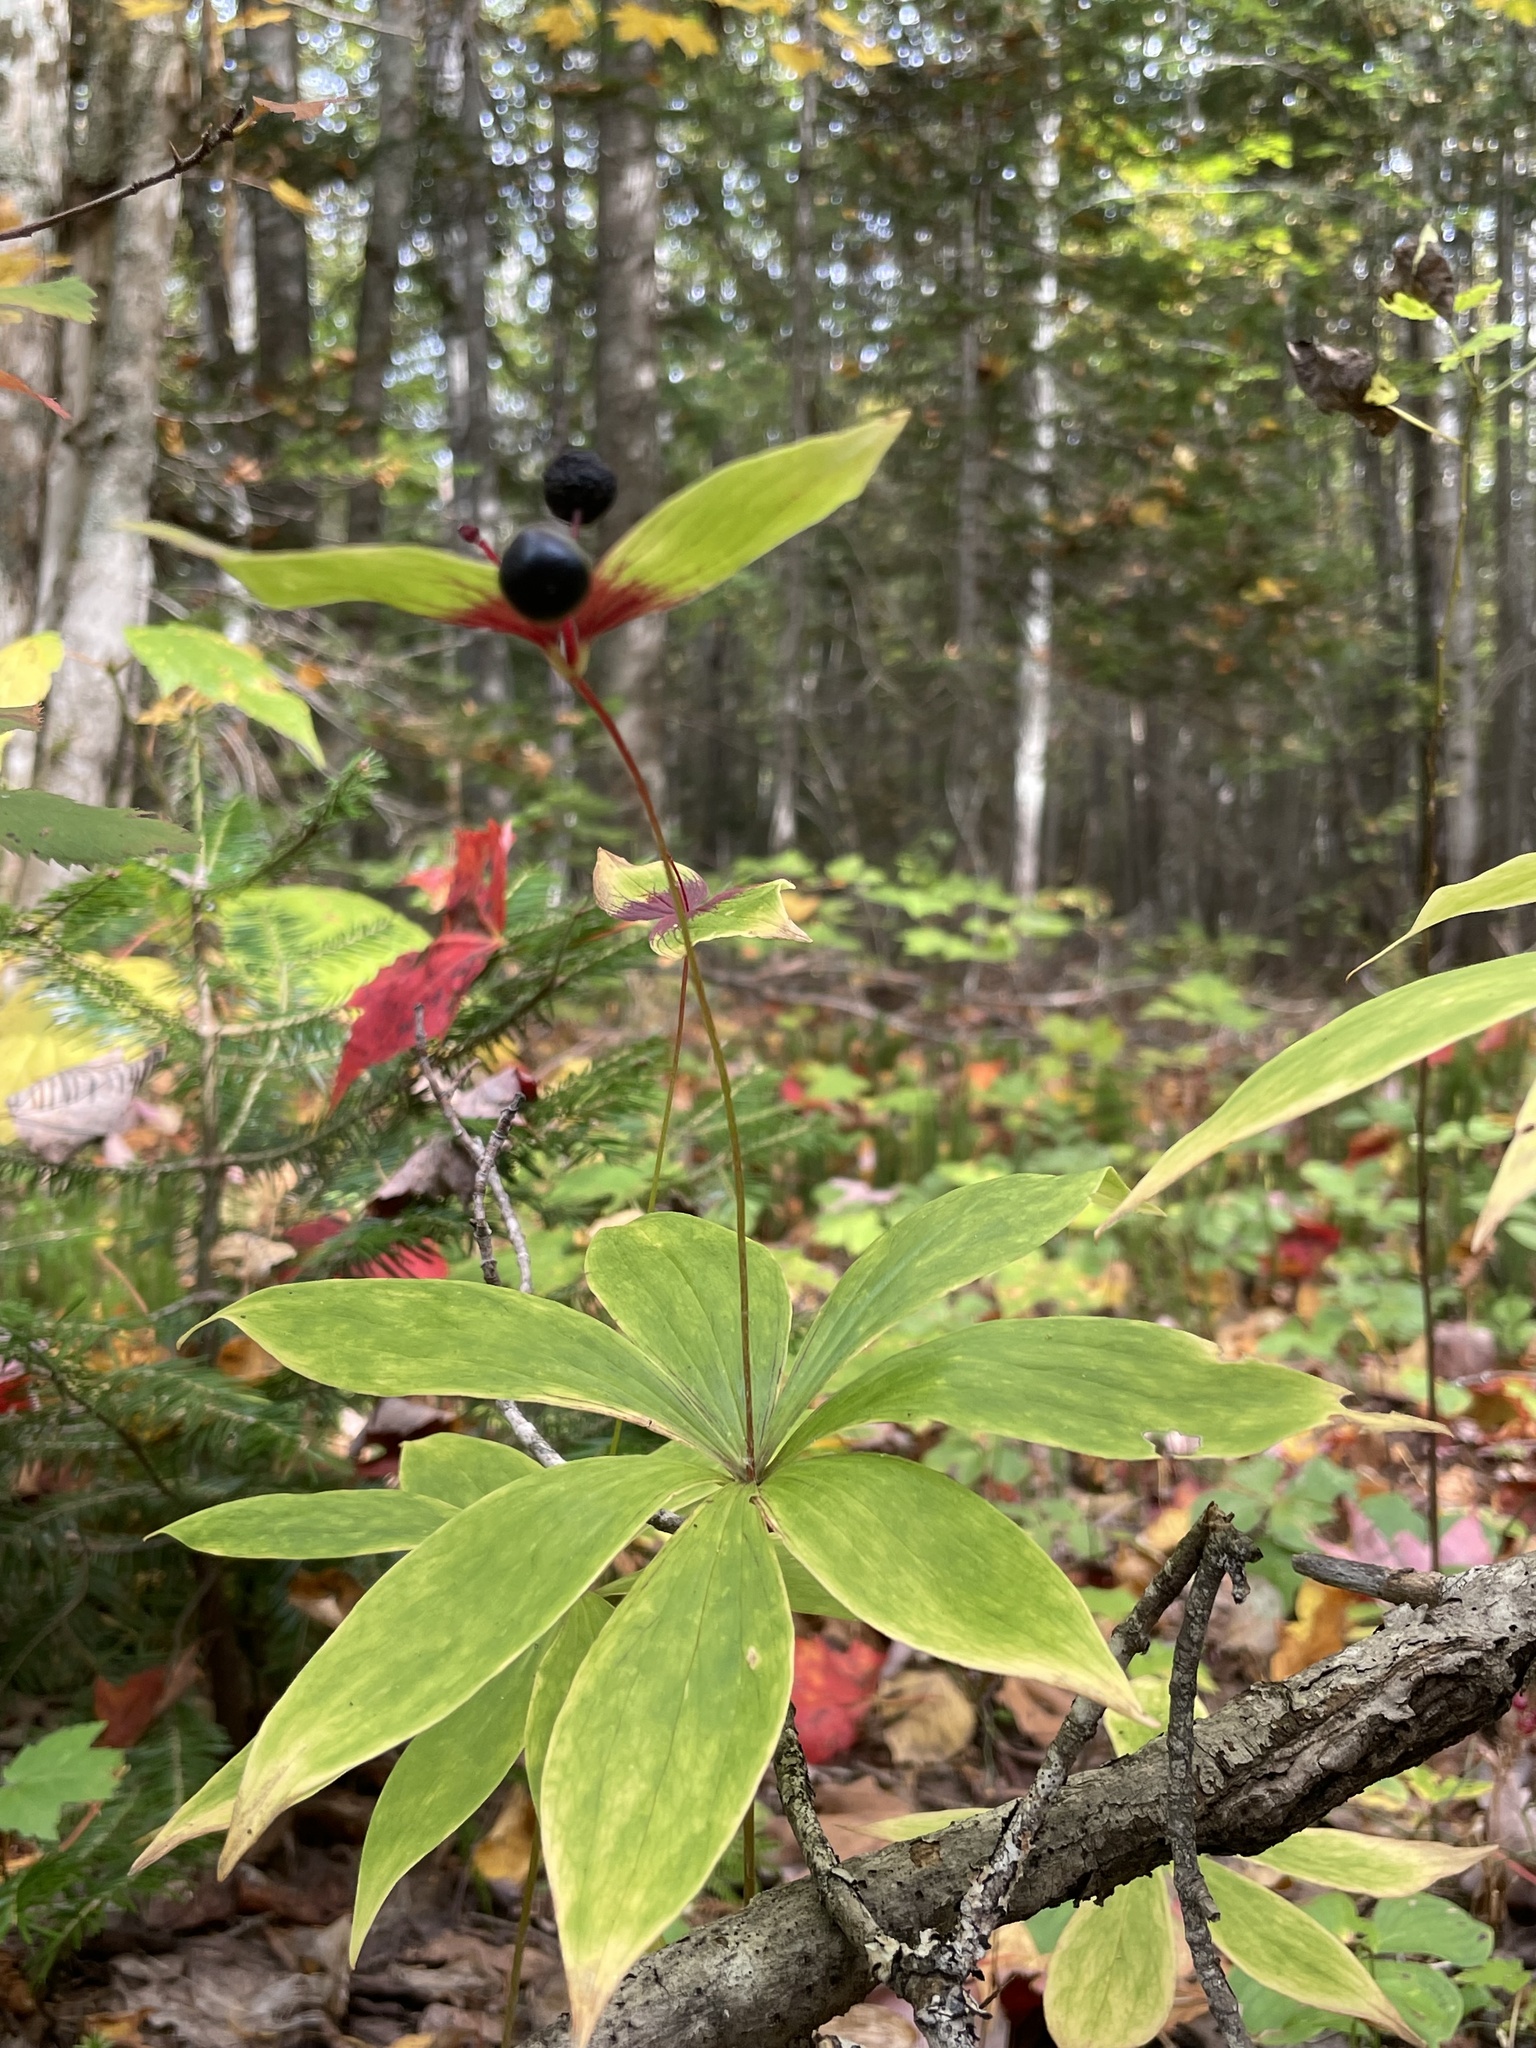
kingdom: Plantae
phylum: Tracheophyta
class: Liliopsida
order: Liliales
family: Liliaceae
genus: Medeola
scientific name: Medeola virginiana
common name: Indian cucumber-root
